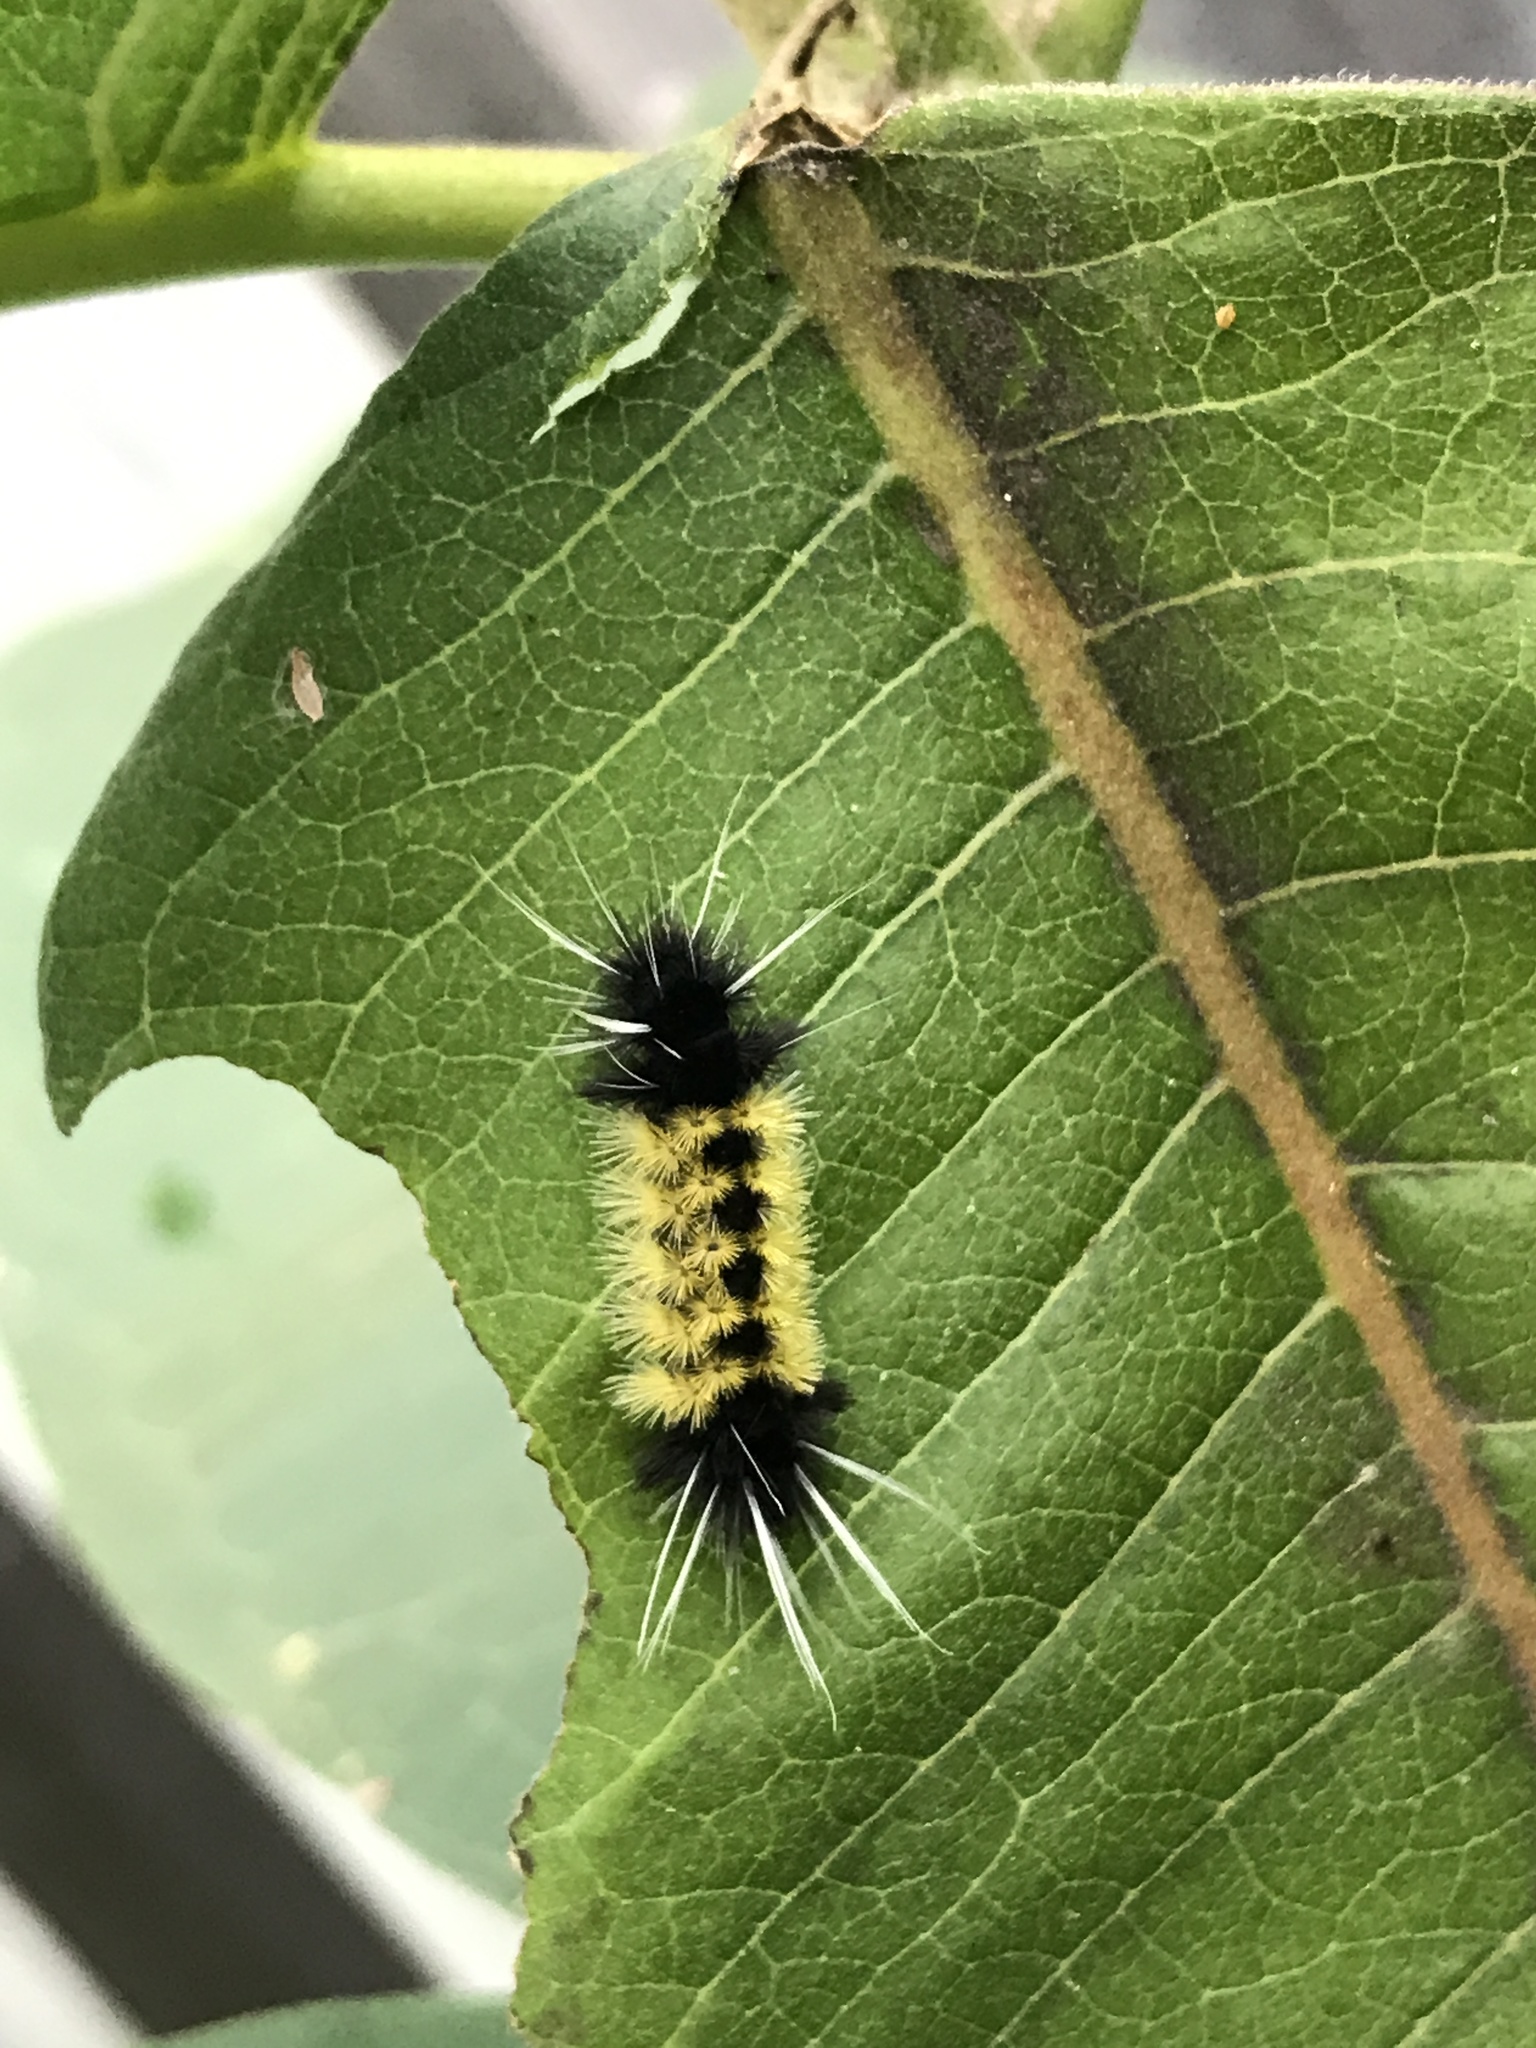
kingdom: Animalia
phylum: Arthropoda
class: Insecta
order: Lepidoptera
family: Erebidae
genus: Lophocampa
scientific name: Lophocampa maculata
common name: Spotted tussock moth
